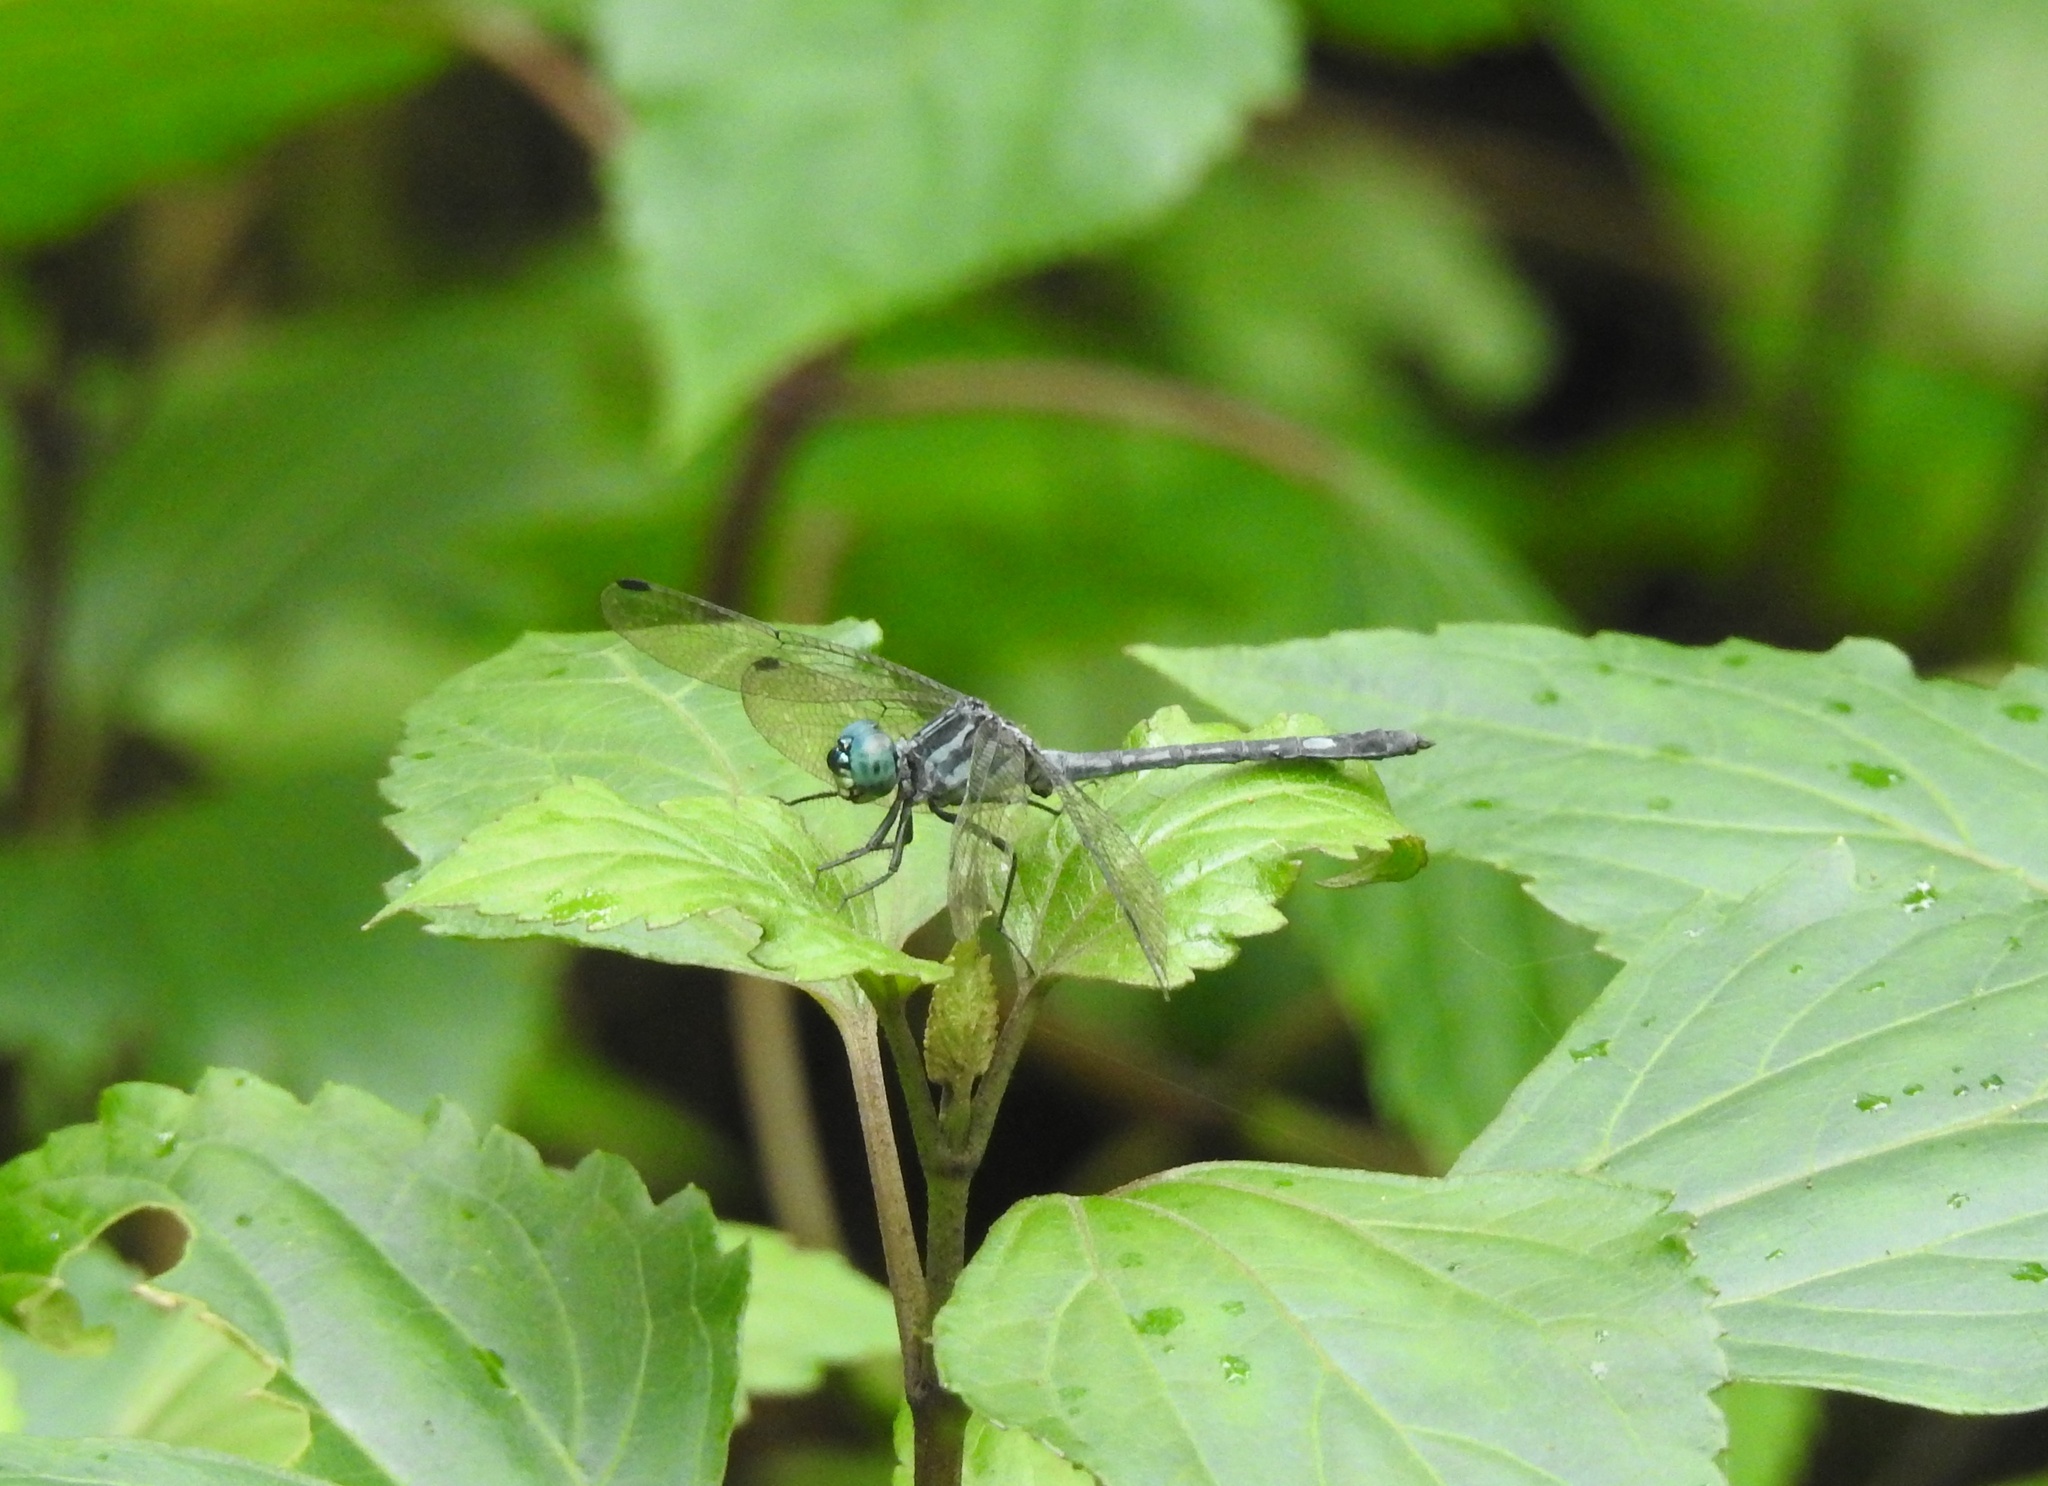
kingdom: Animalia
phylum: Arthropoda
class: Insecta
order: Odonata
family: Libellulidae
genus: Hylaeothemis
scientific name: Hylaeothemis apicalis
